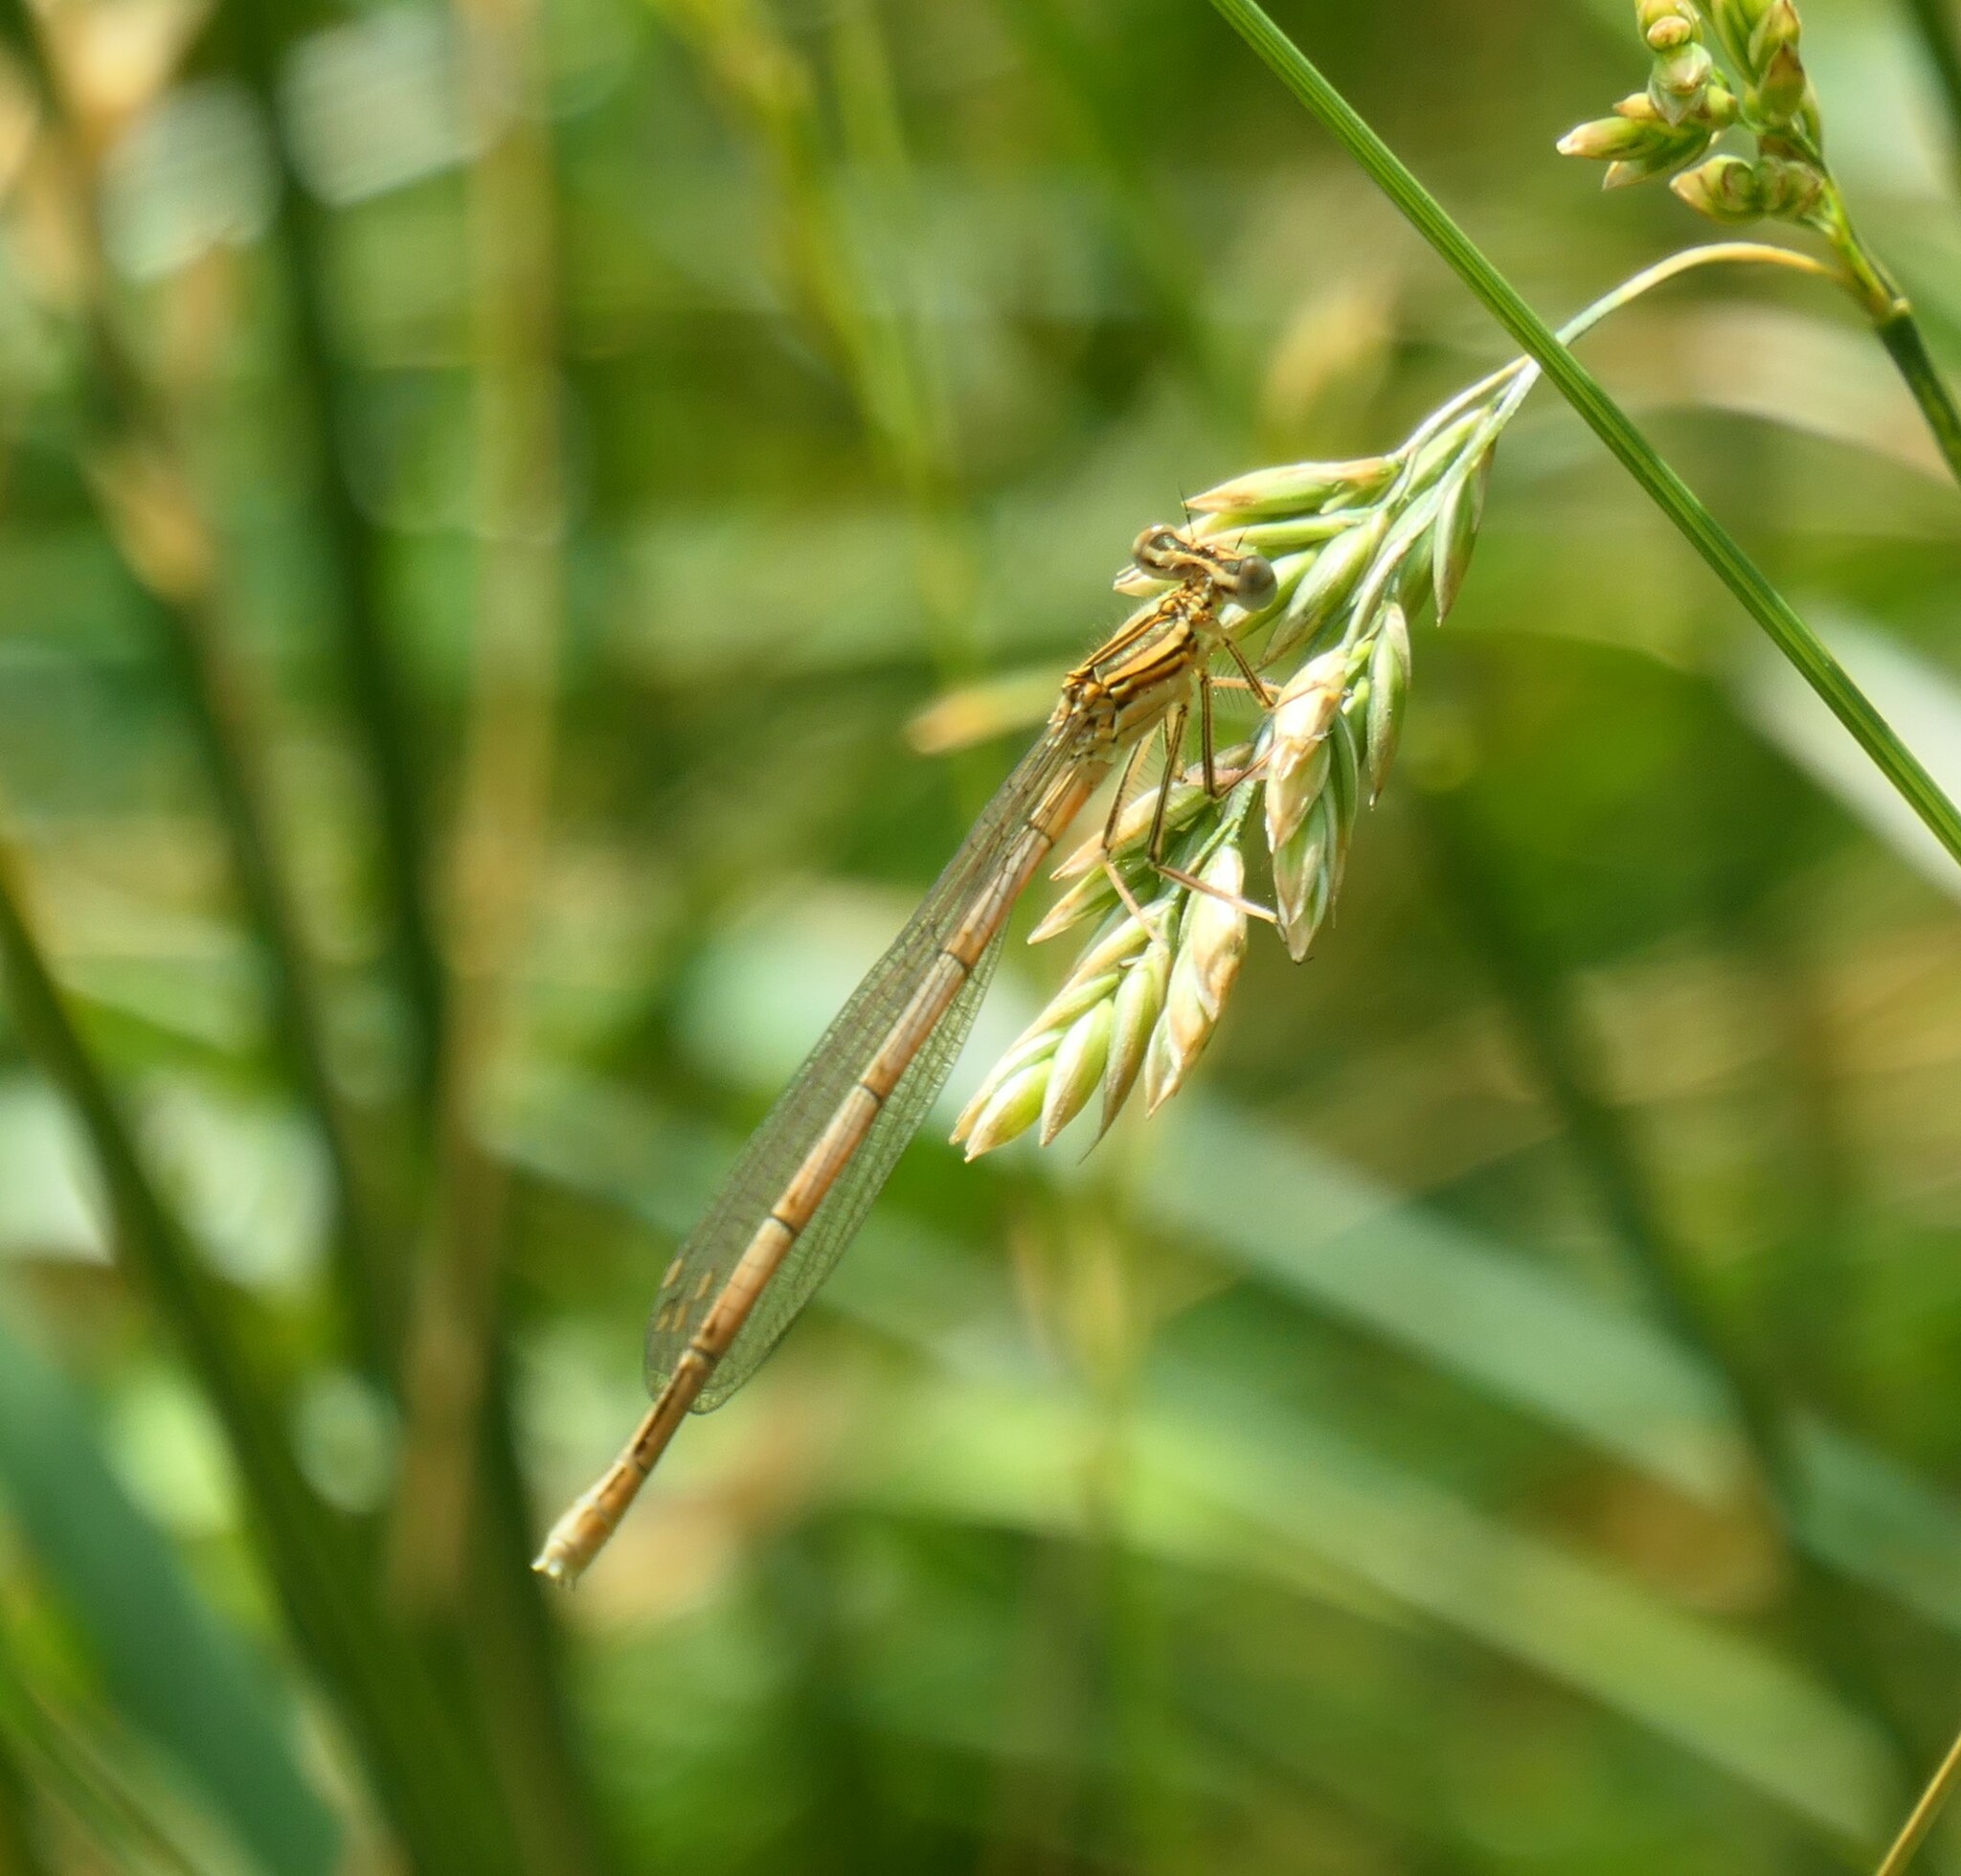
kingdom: Animalia
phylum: Arthropoda
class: Insecta
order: Odonata
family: Platycnemididae
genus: Platycnemis
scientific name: Platycnemis pennipes
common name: White-legged damselfly
